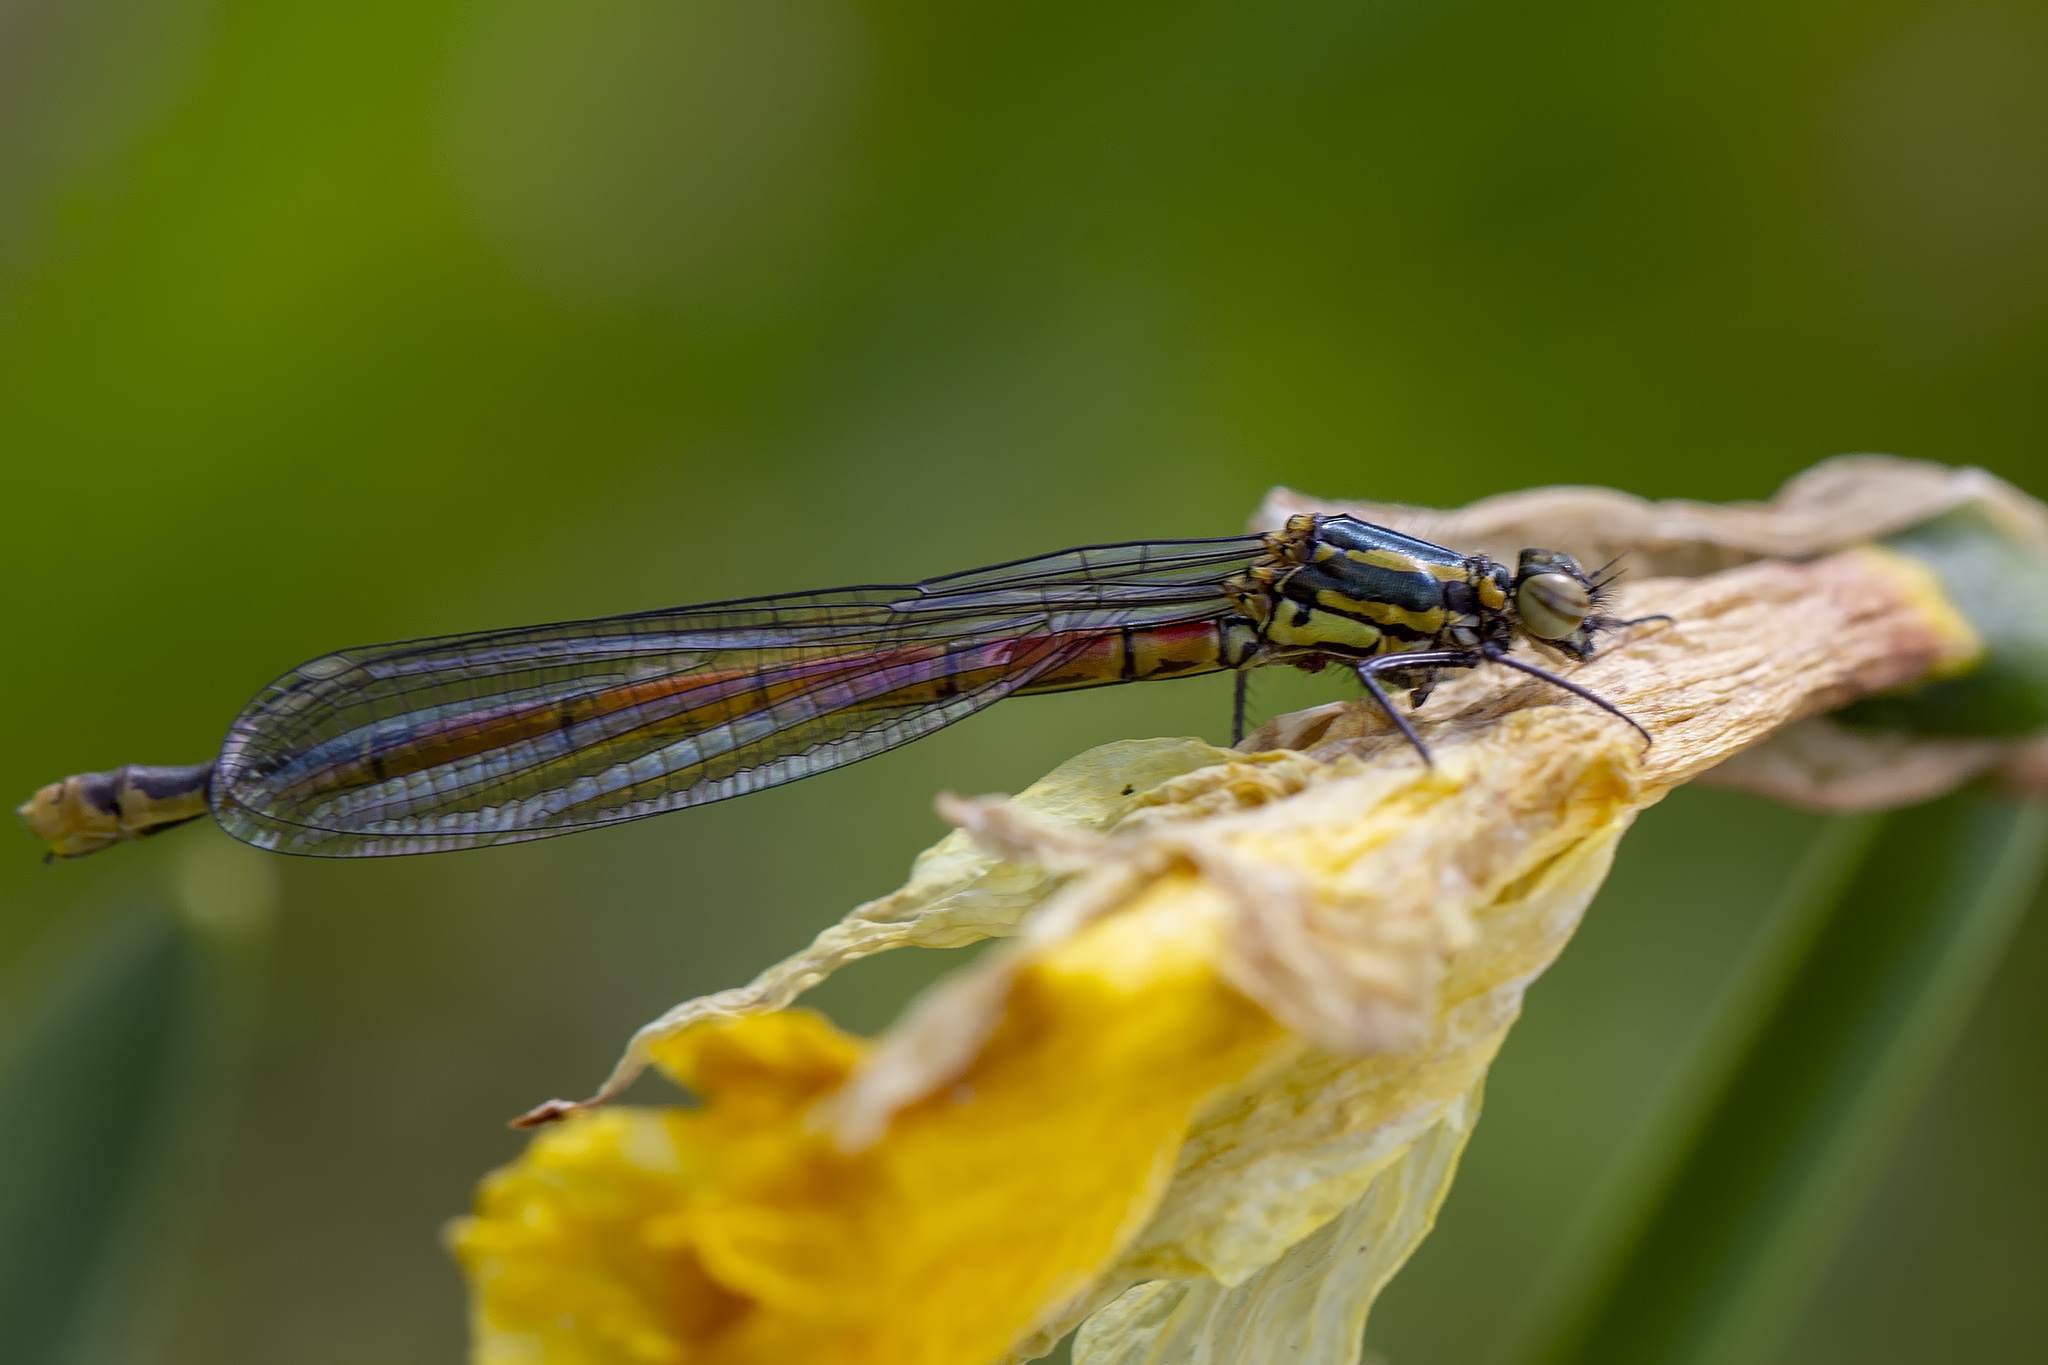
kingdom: Animalia
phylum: Arthropoda
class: Insecta
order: Odonata
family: Coenagrionidae
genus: Pyrrhosoma
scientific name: Pyrrhosoma nymphula
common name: Large red damsel
